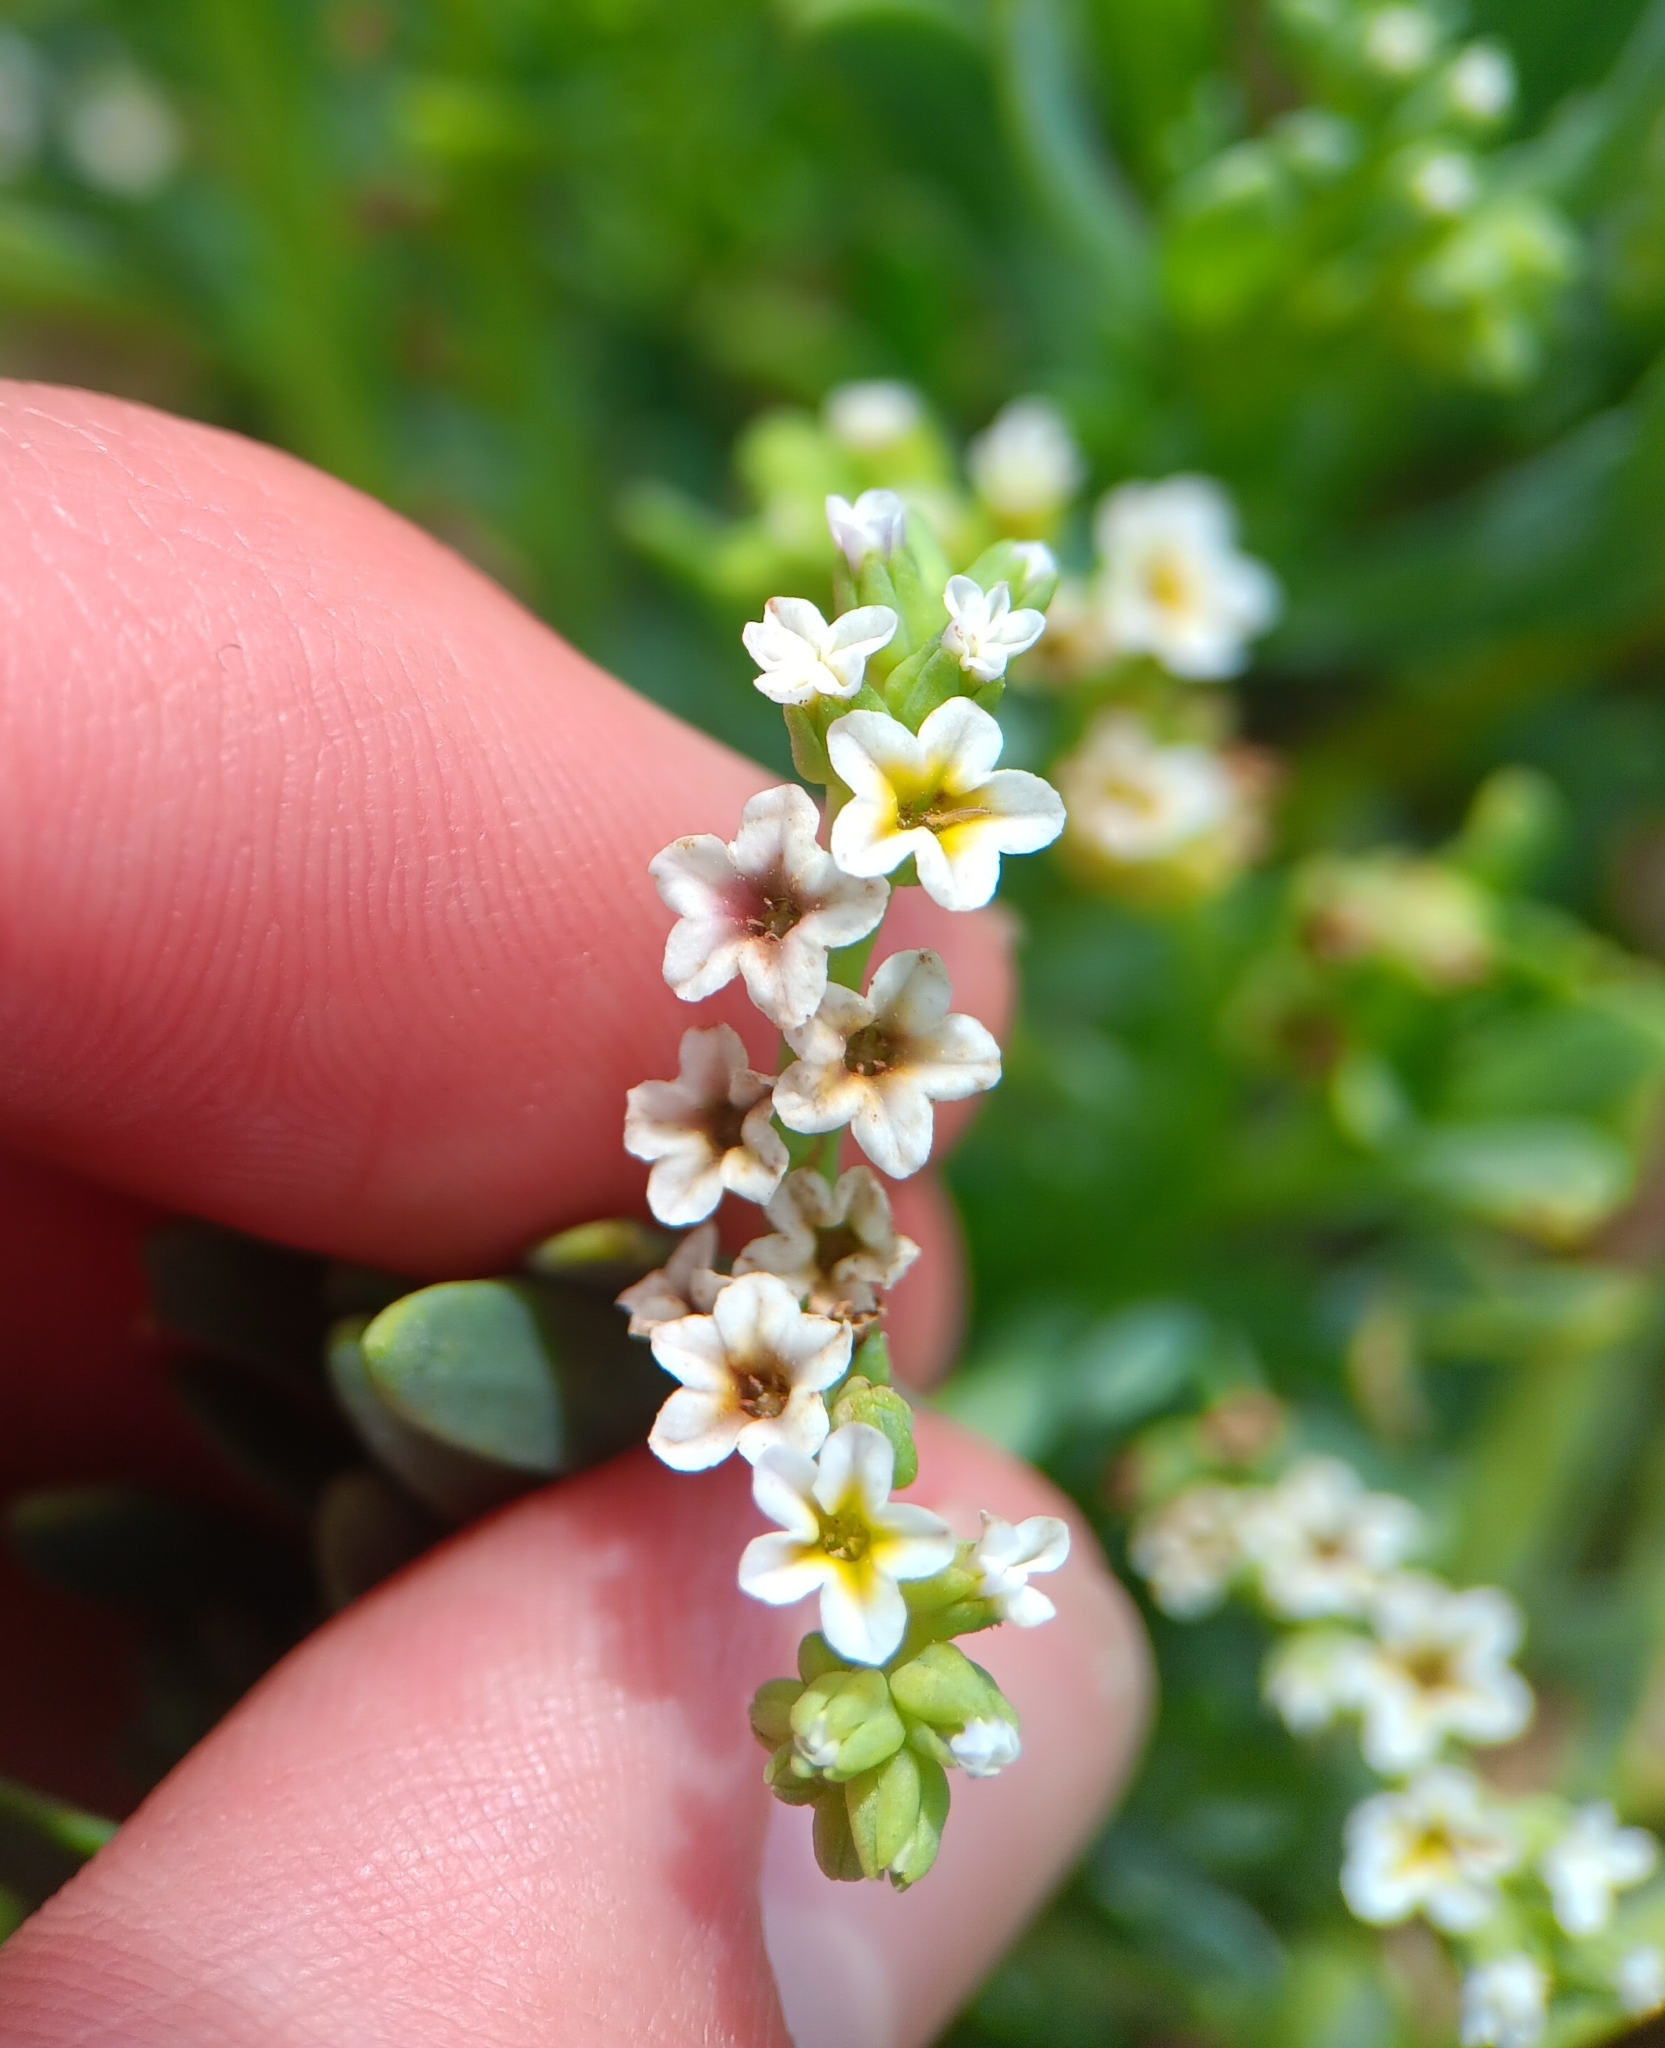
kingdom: Plantae
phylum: Tracheophyta
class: Magnoliopsida
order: Boraginales
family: Heliotropiaceae
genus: Heliotropium
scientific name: Heliotropium curassavicum
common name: Seaside heliotrope
